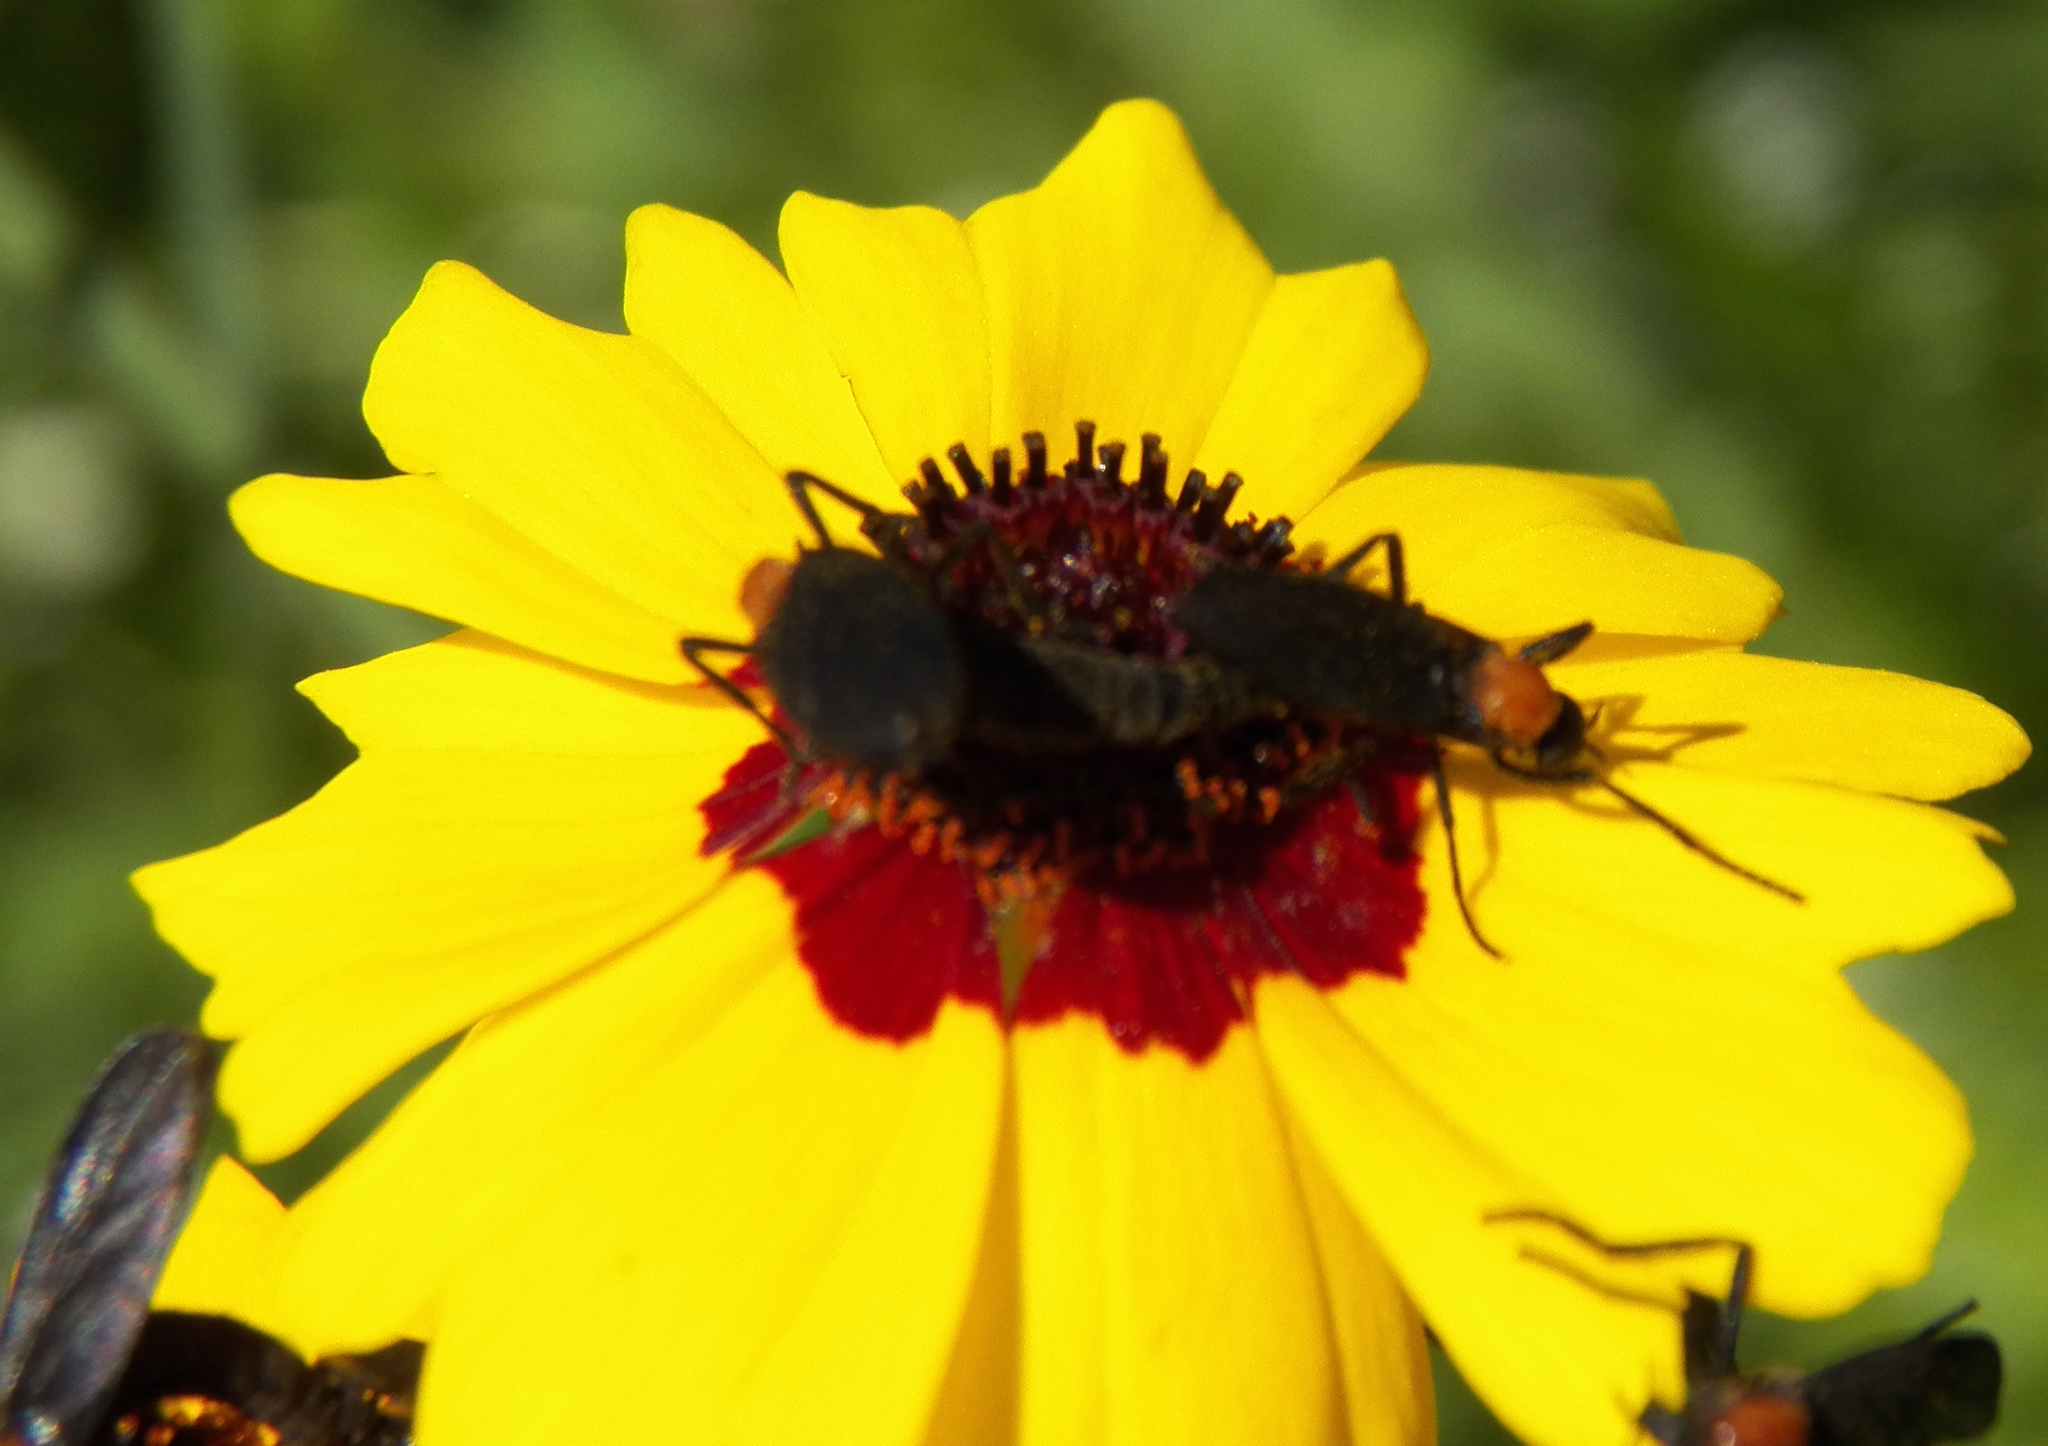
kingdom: Plantae
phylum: Tracheophyta
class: Magnoliopsida
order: Asterales
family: Asteraceae
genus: Coreopsis
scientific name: Coreopsis tinctoria
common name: Garden tickseed
